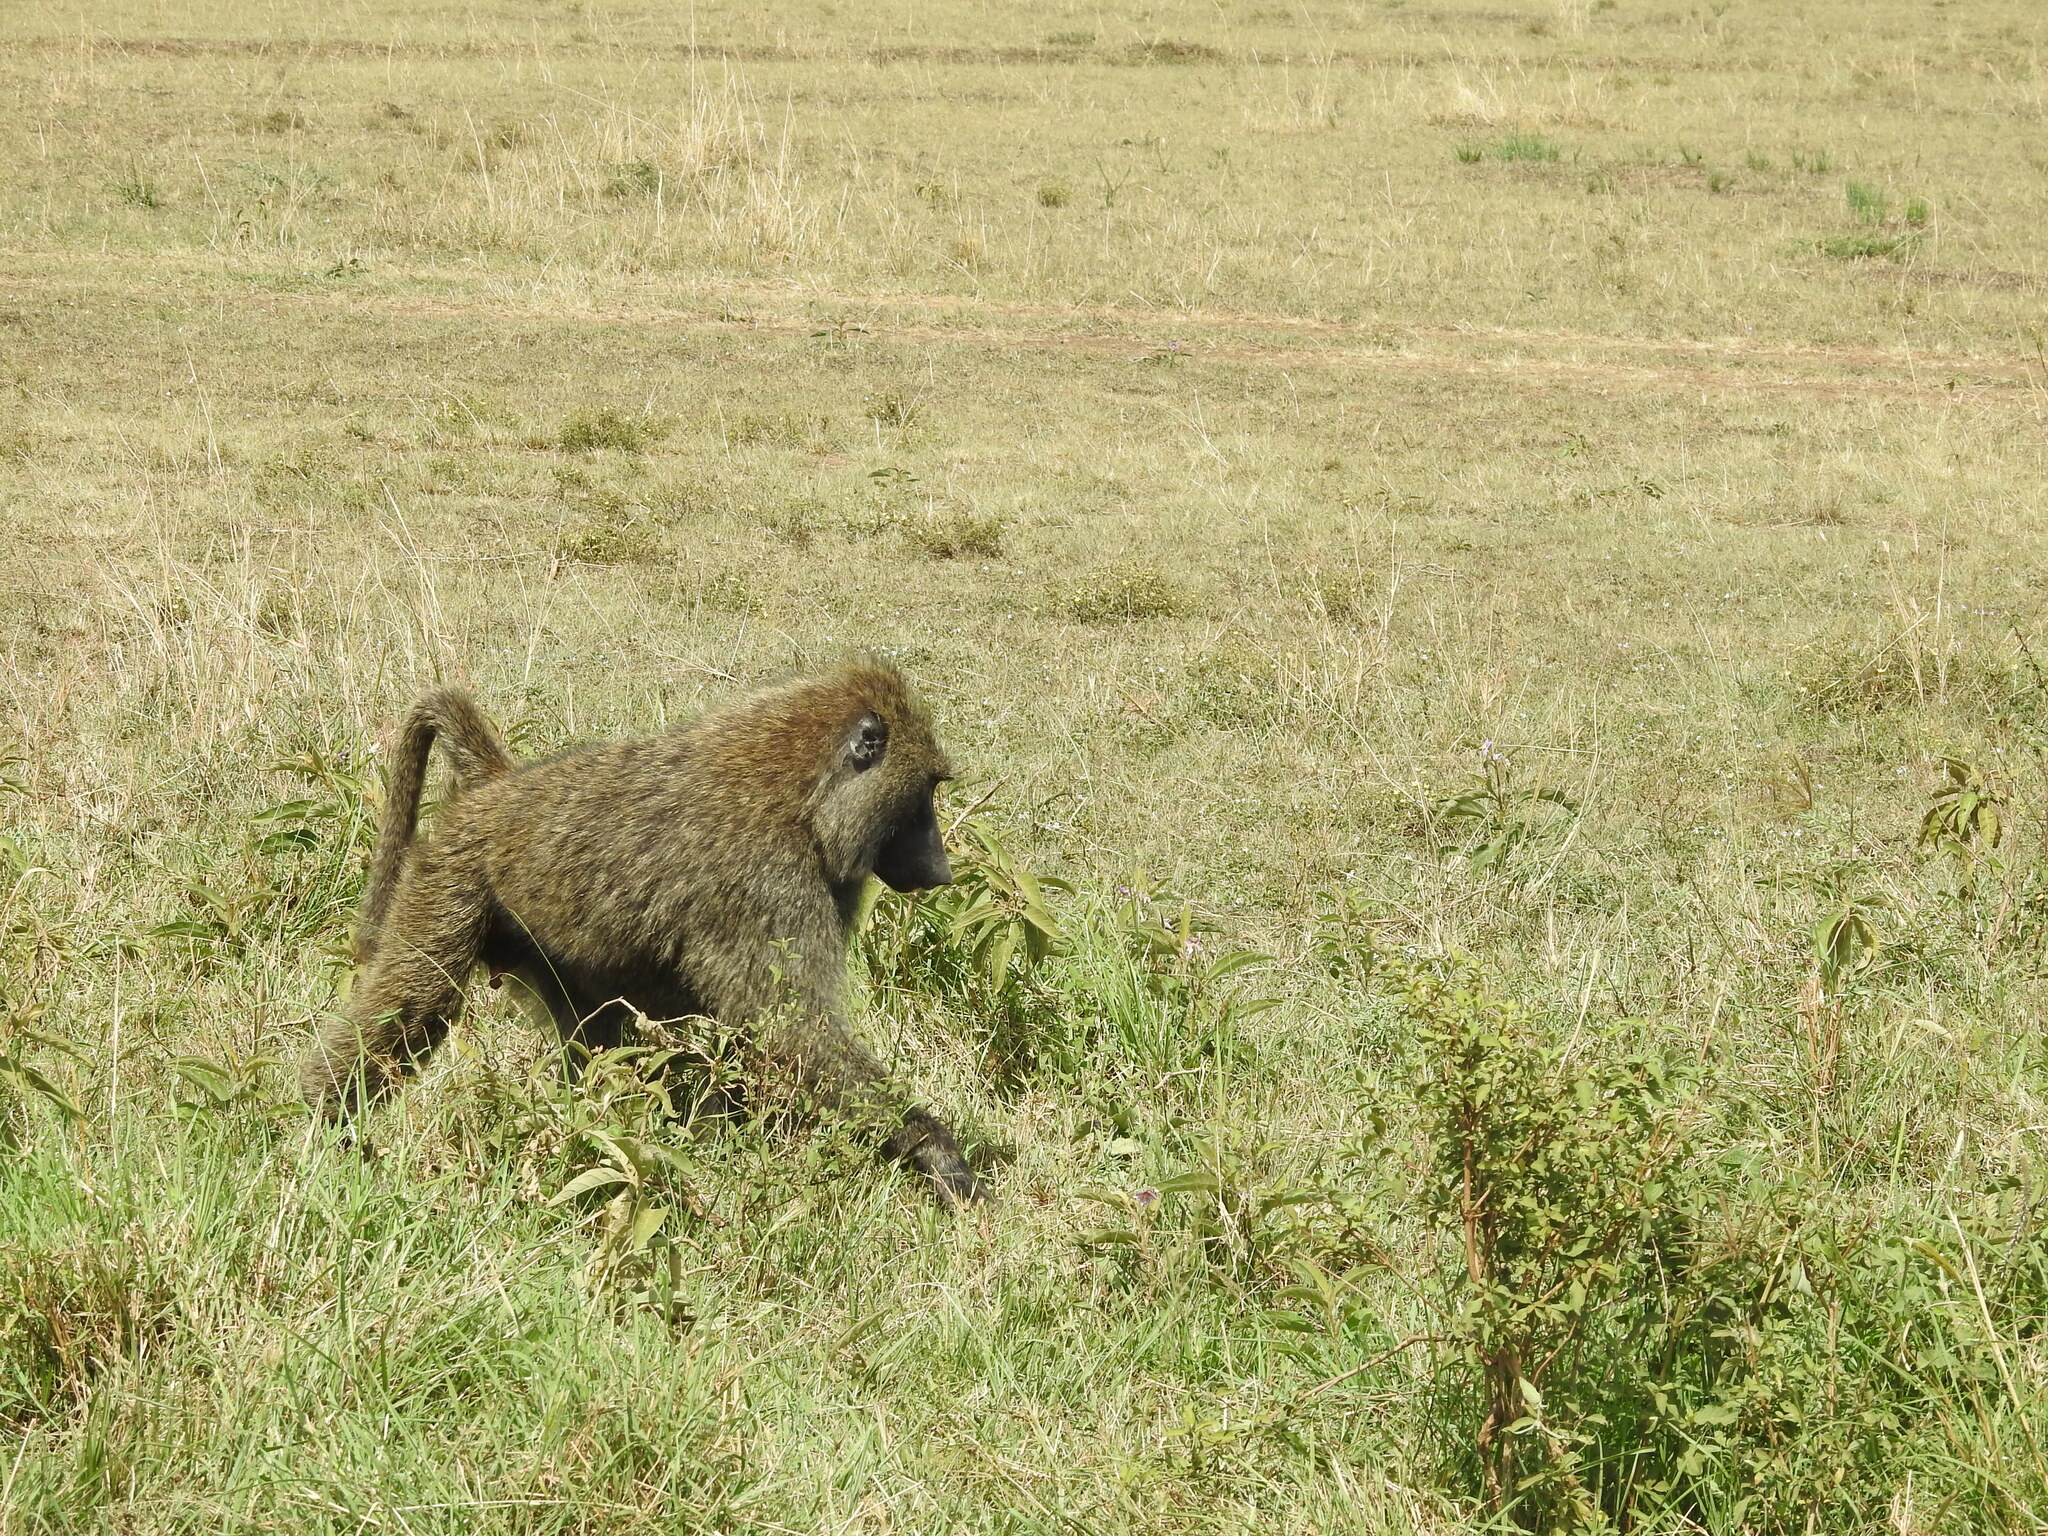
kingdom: Animalia
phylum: Chordata
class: Mammalia
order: Primates
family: Cercopithecidae
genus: Papio
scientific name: Papio anubis
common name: Olive baboon
